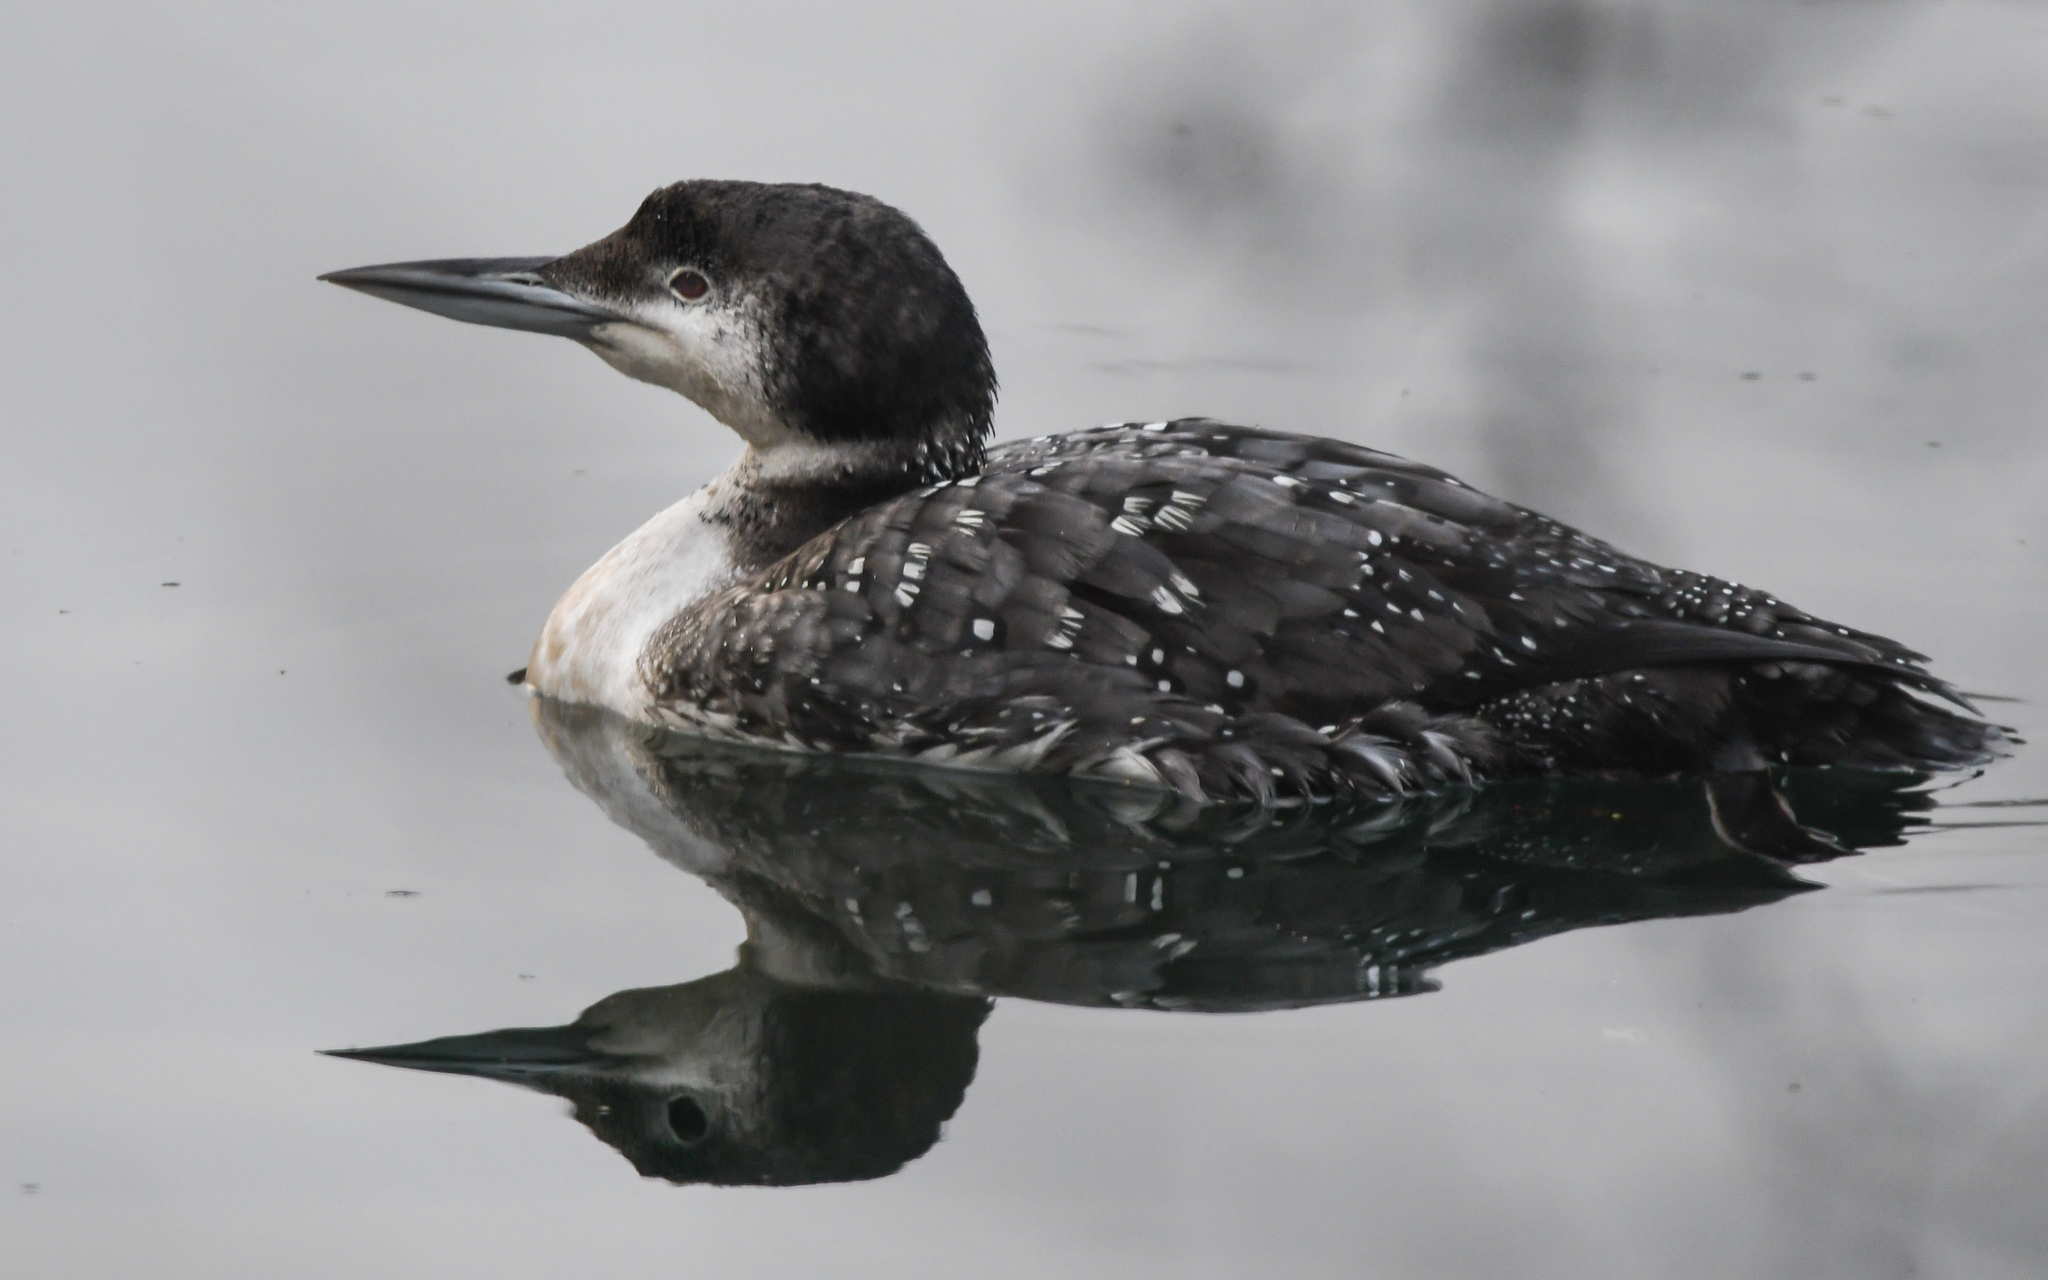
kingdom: Animalia
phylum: Chordata
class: Aves
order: Gaviiformes
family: Gaviidae
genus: Gavia
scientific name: Gavia immer
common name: Common loon
